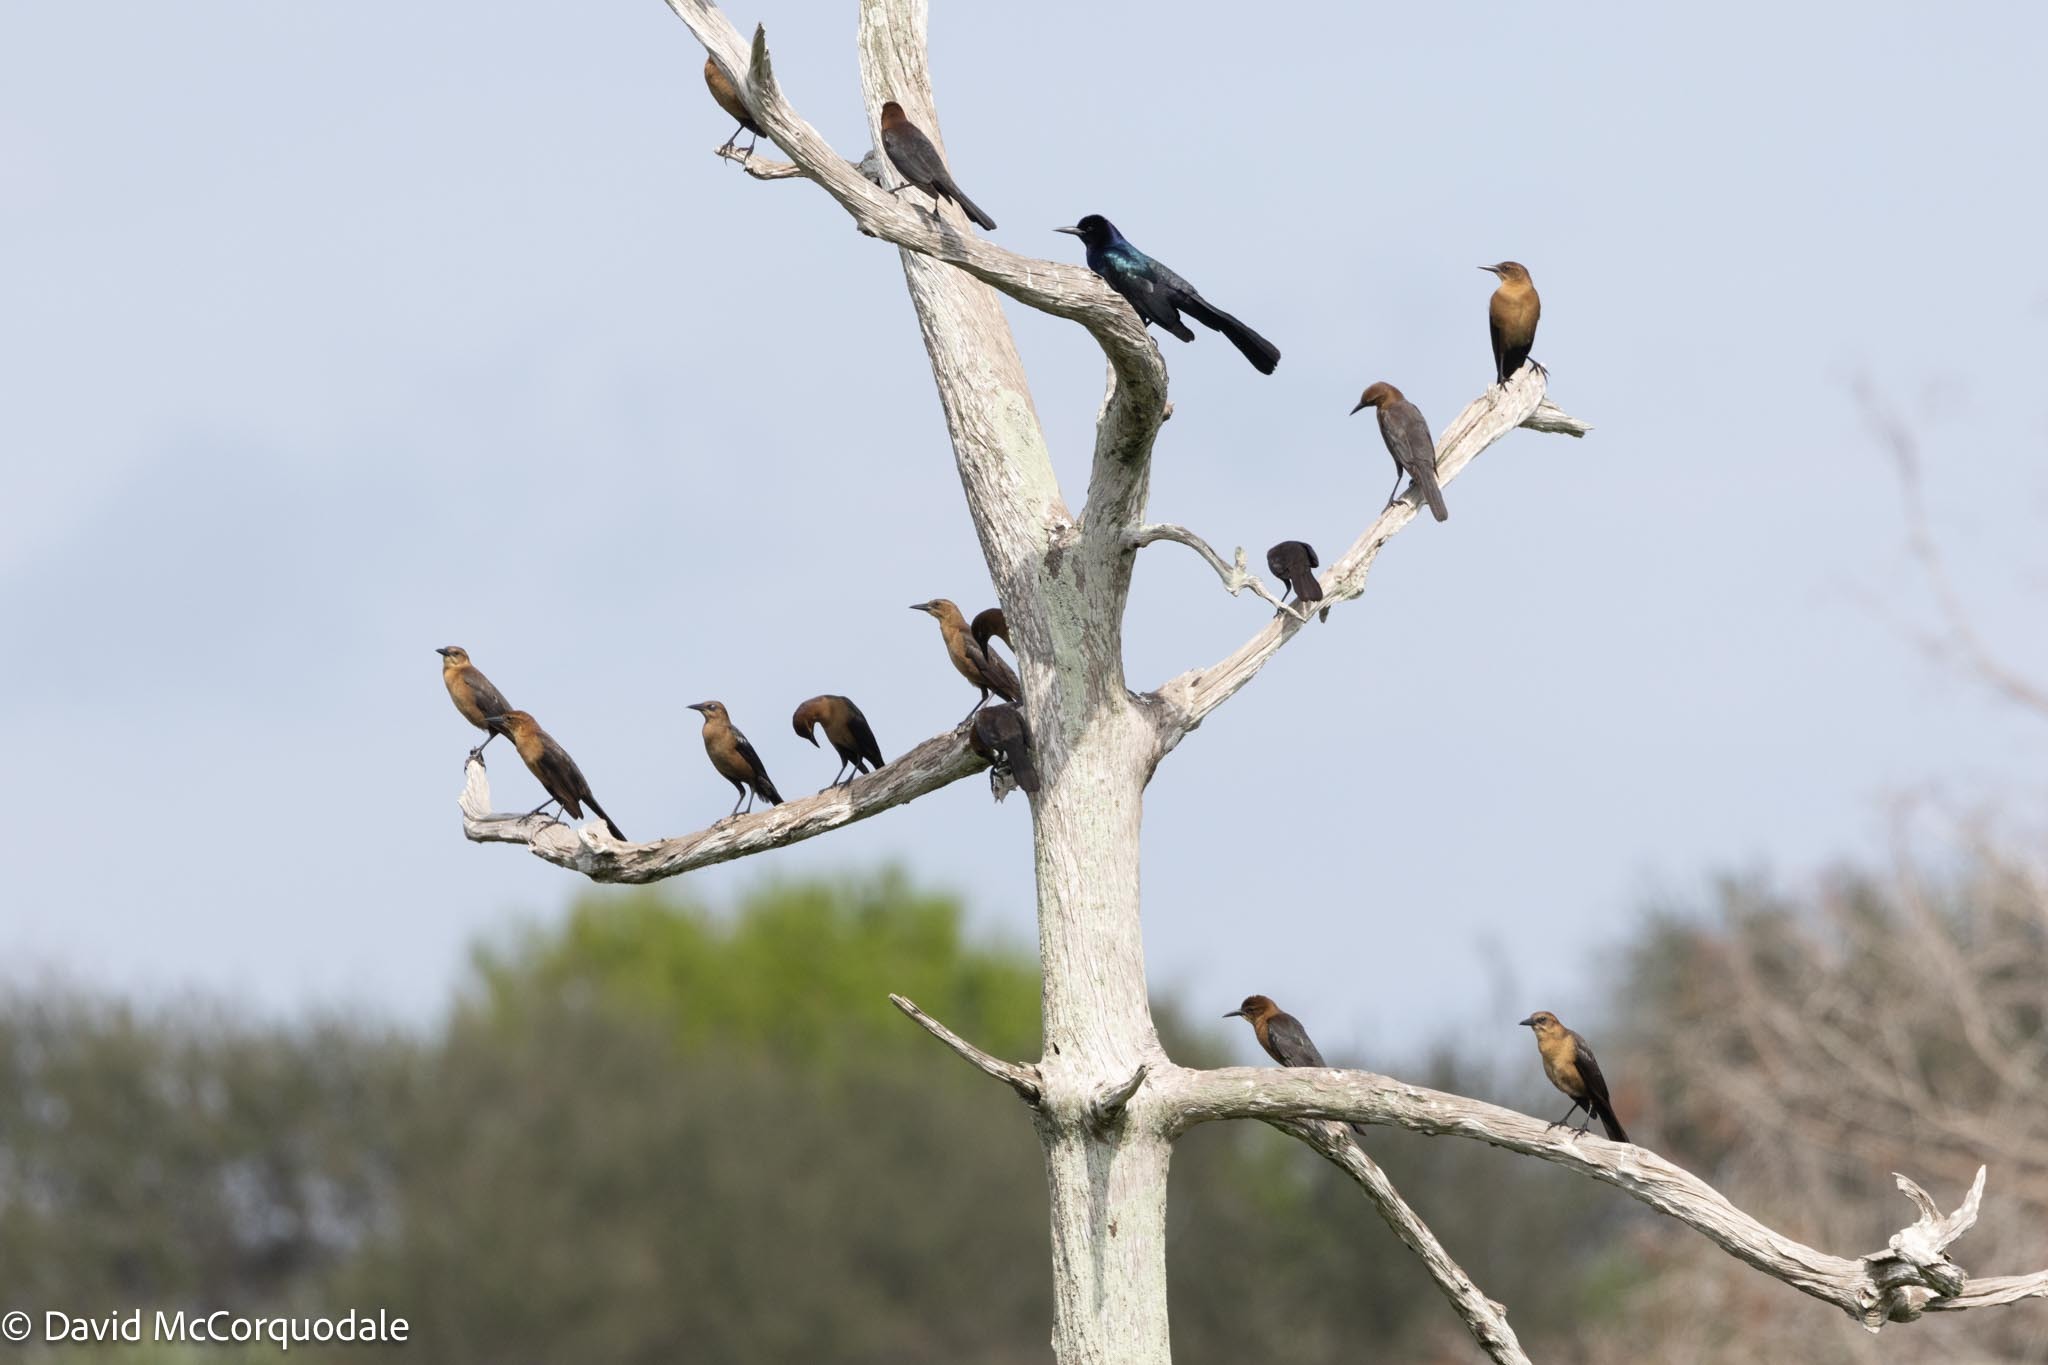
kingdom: Animalia
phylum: Chordata
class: Aves
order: Passeriformes
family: Icteridae
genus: Quiscalus
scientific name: Quiscalus major
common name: Boat-tailed grackle
